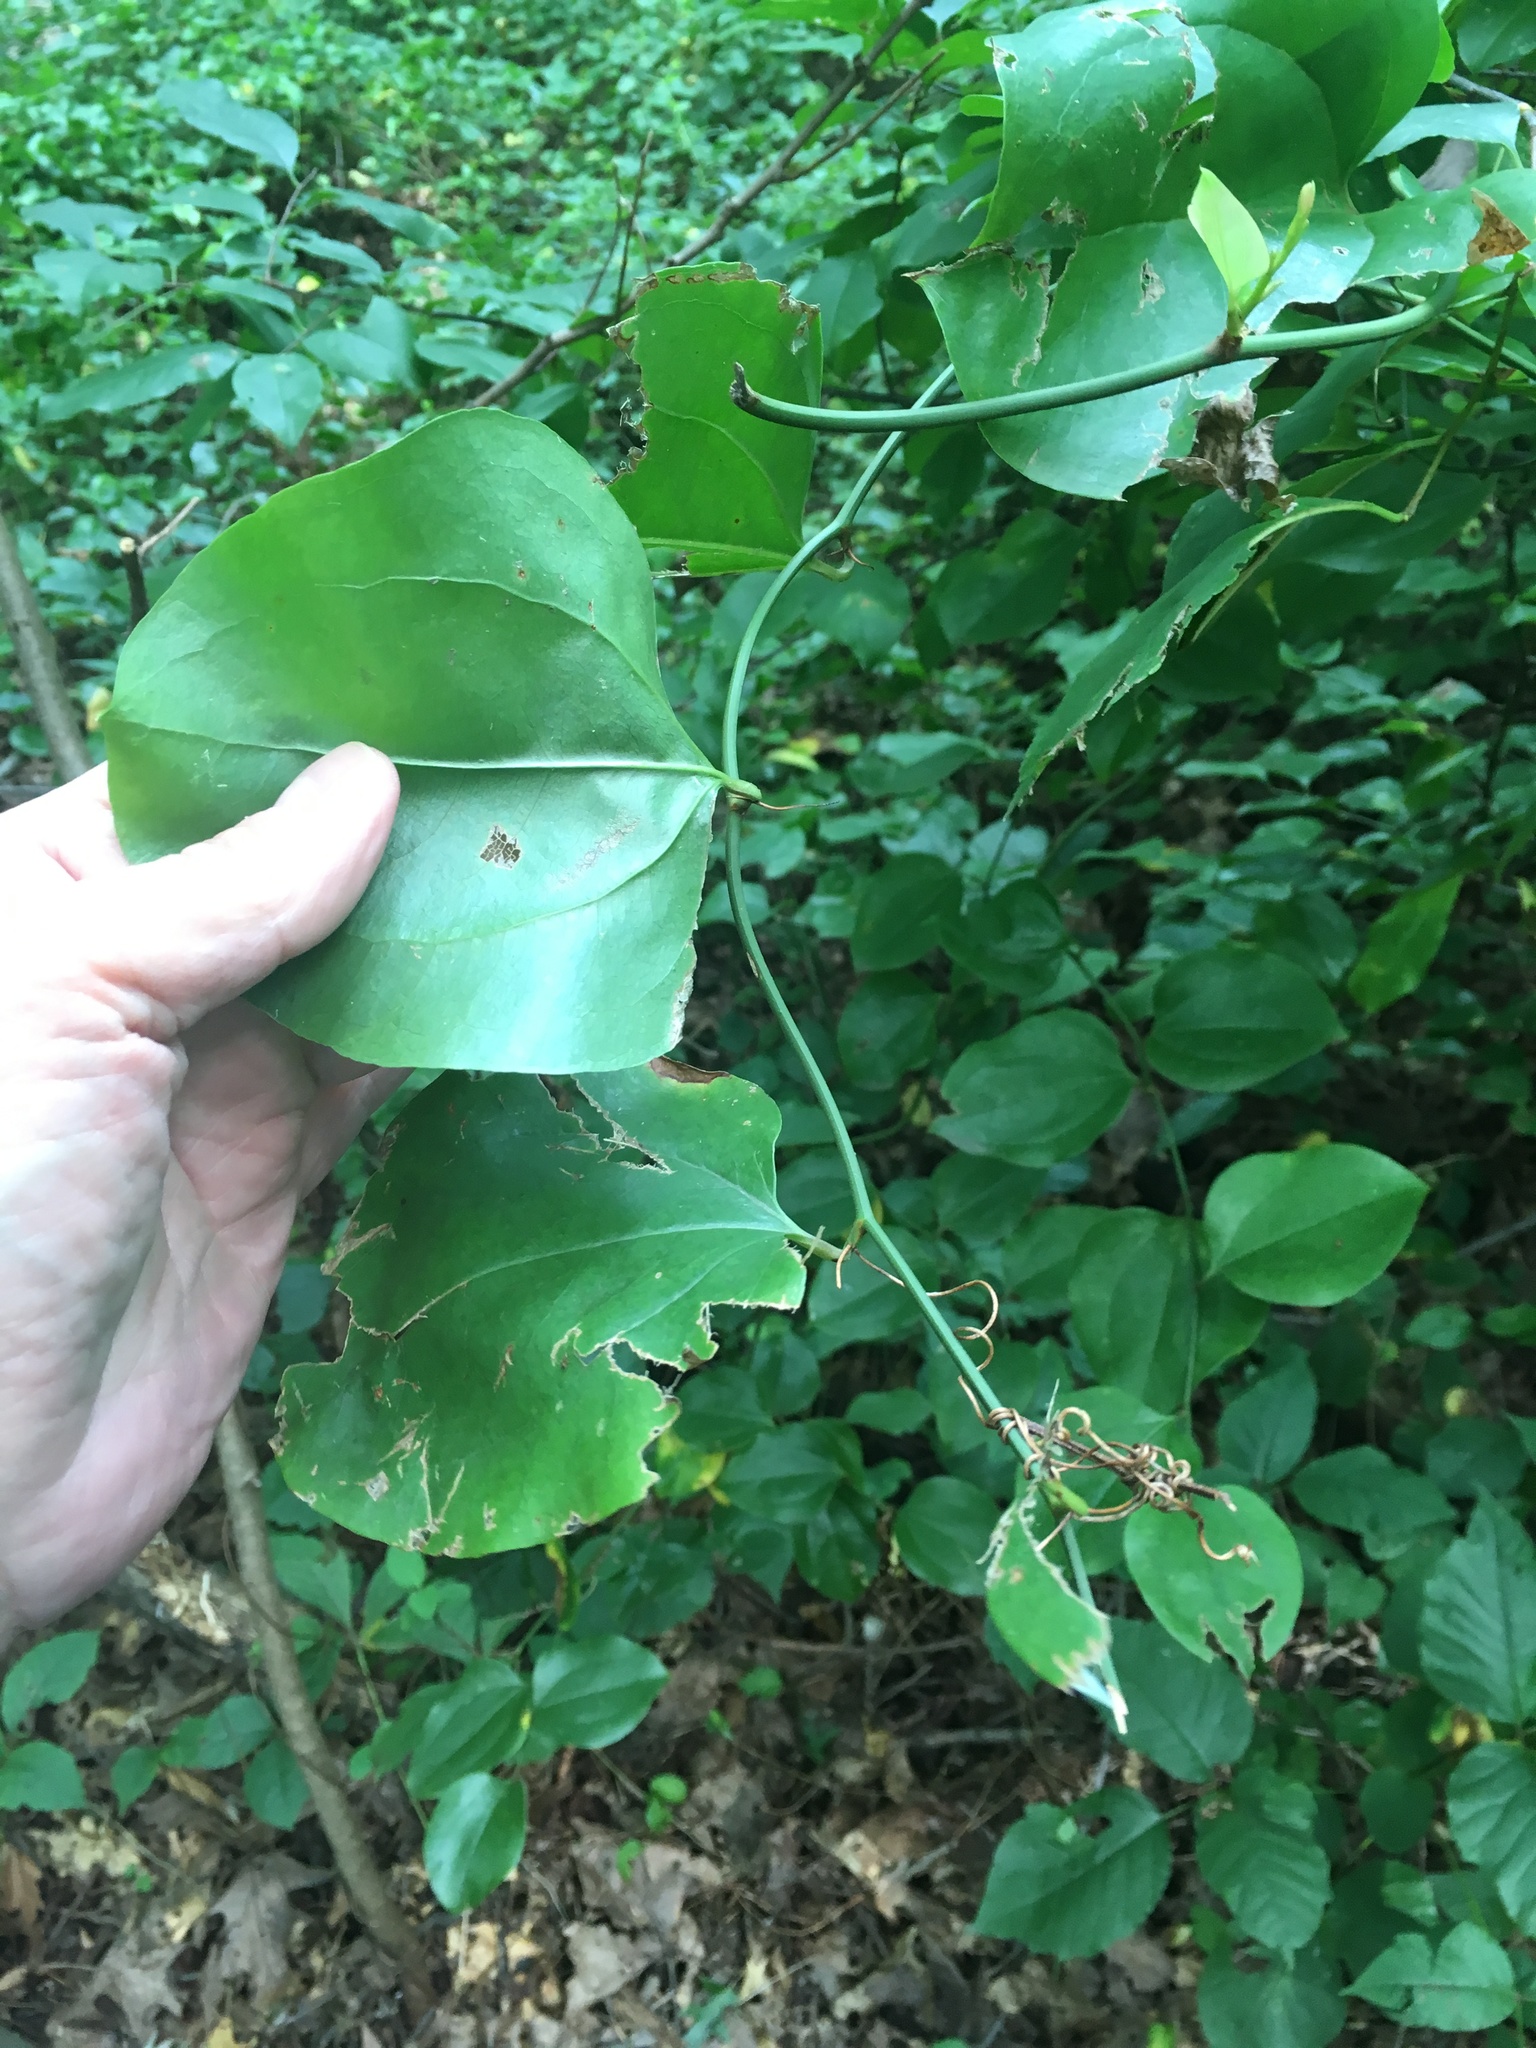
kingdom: Plantae
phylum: Tracheophyta
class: Liliopsida
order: Liliales
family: Smilacaceae
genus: Smilax
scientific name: Smilax rotundifolia
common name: Bullbriar
